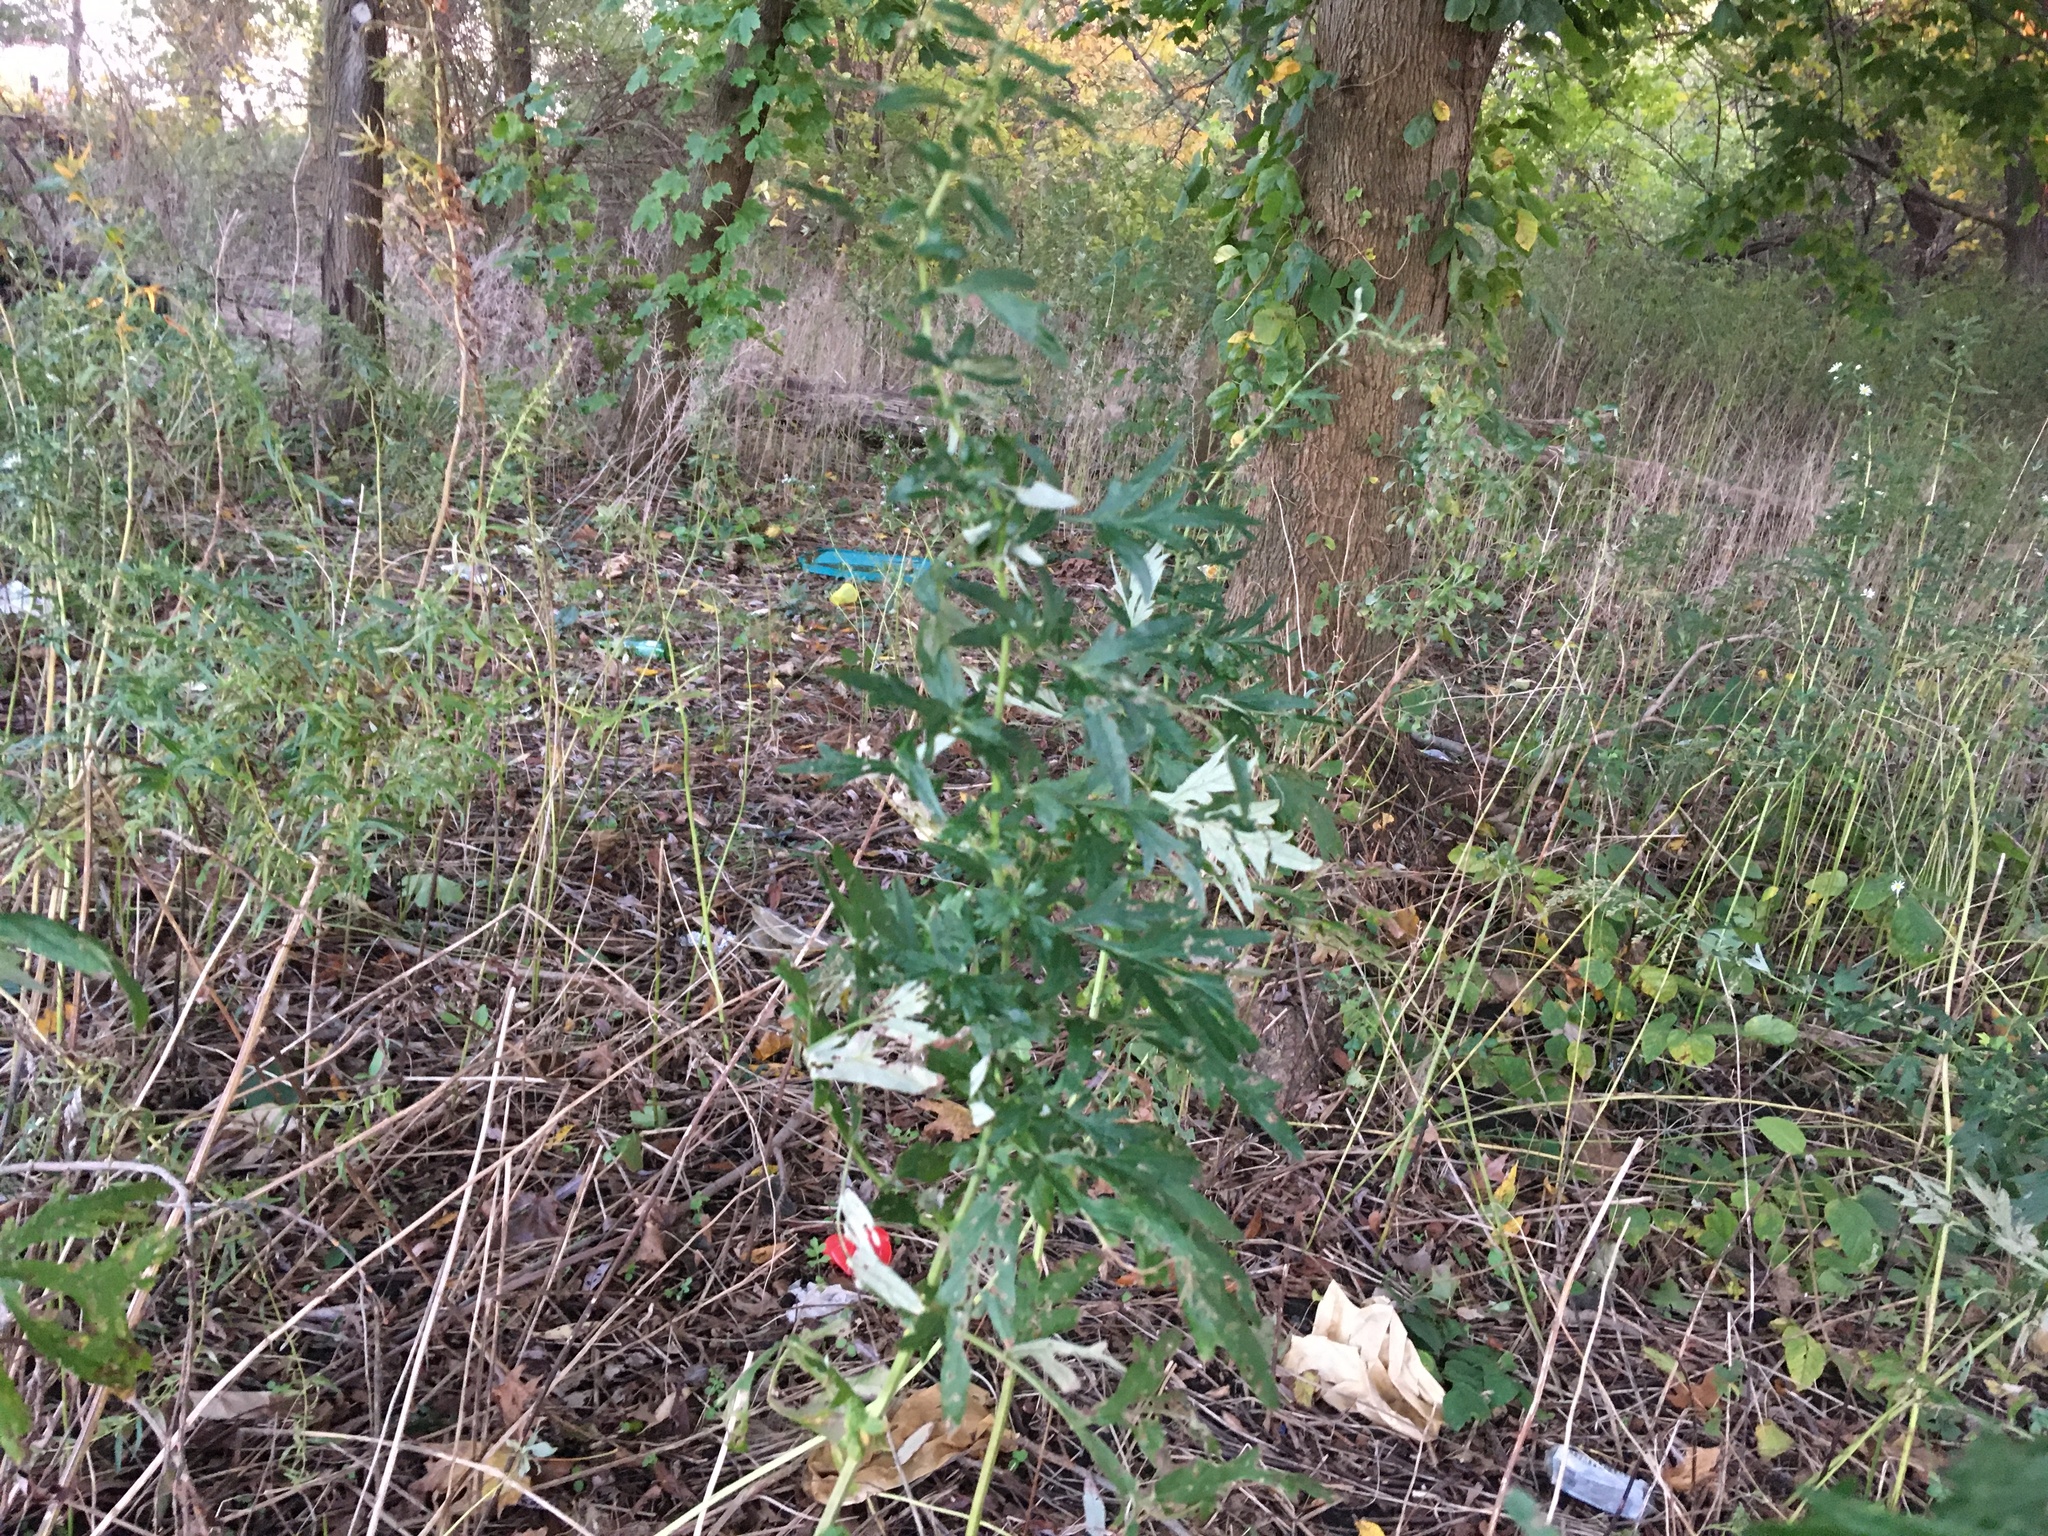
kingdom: Plantae
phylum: Tracheophyta
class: Magnoliopsida
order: Asterales
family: Asteraceae
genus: Artemisia
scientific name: Artemisia vulgaris
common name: Mugwort
